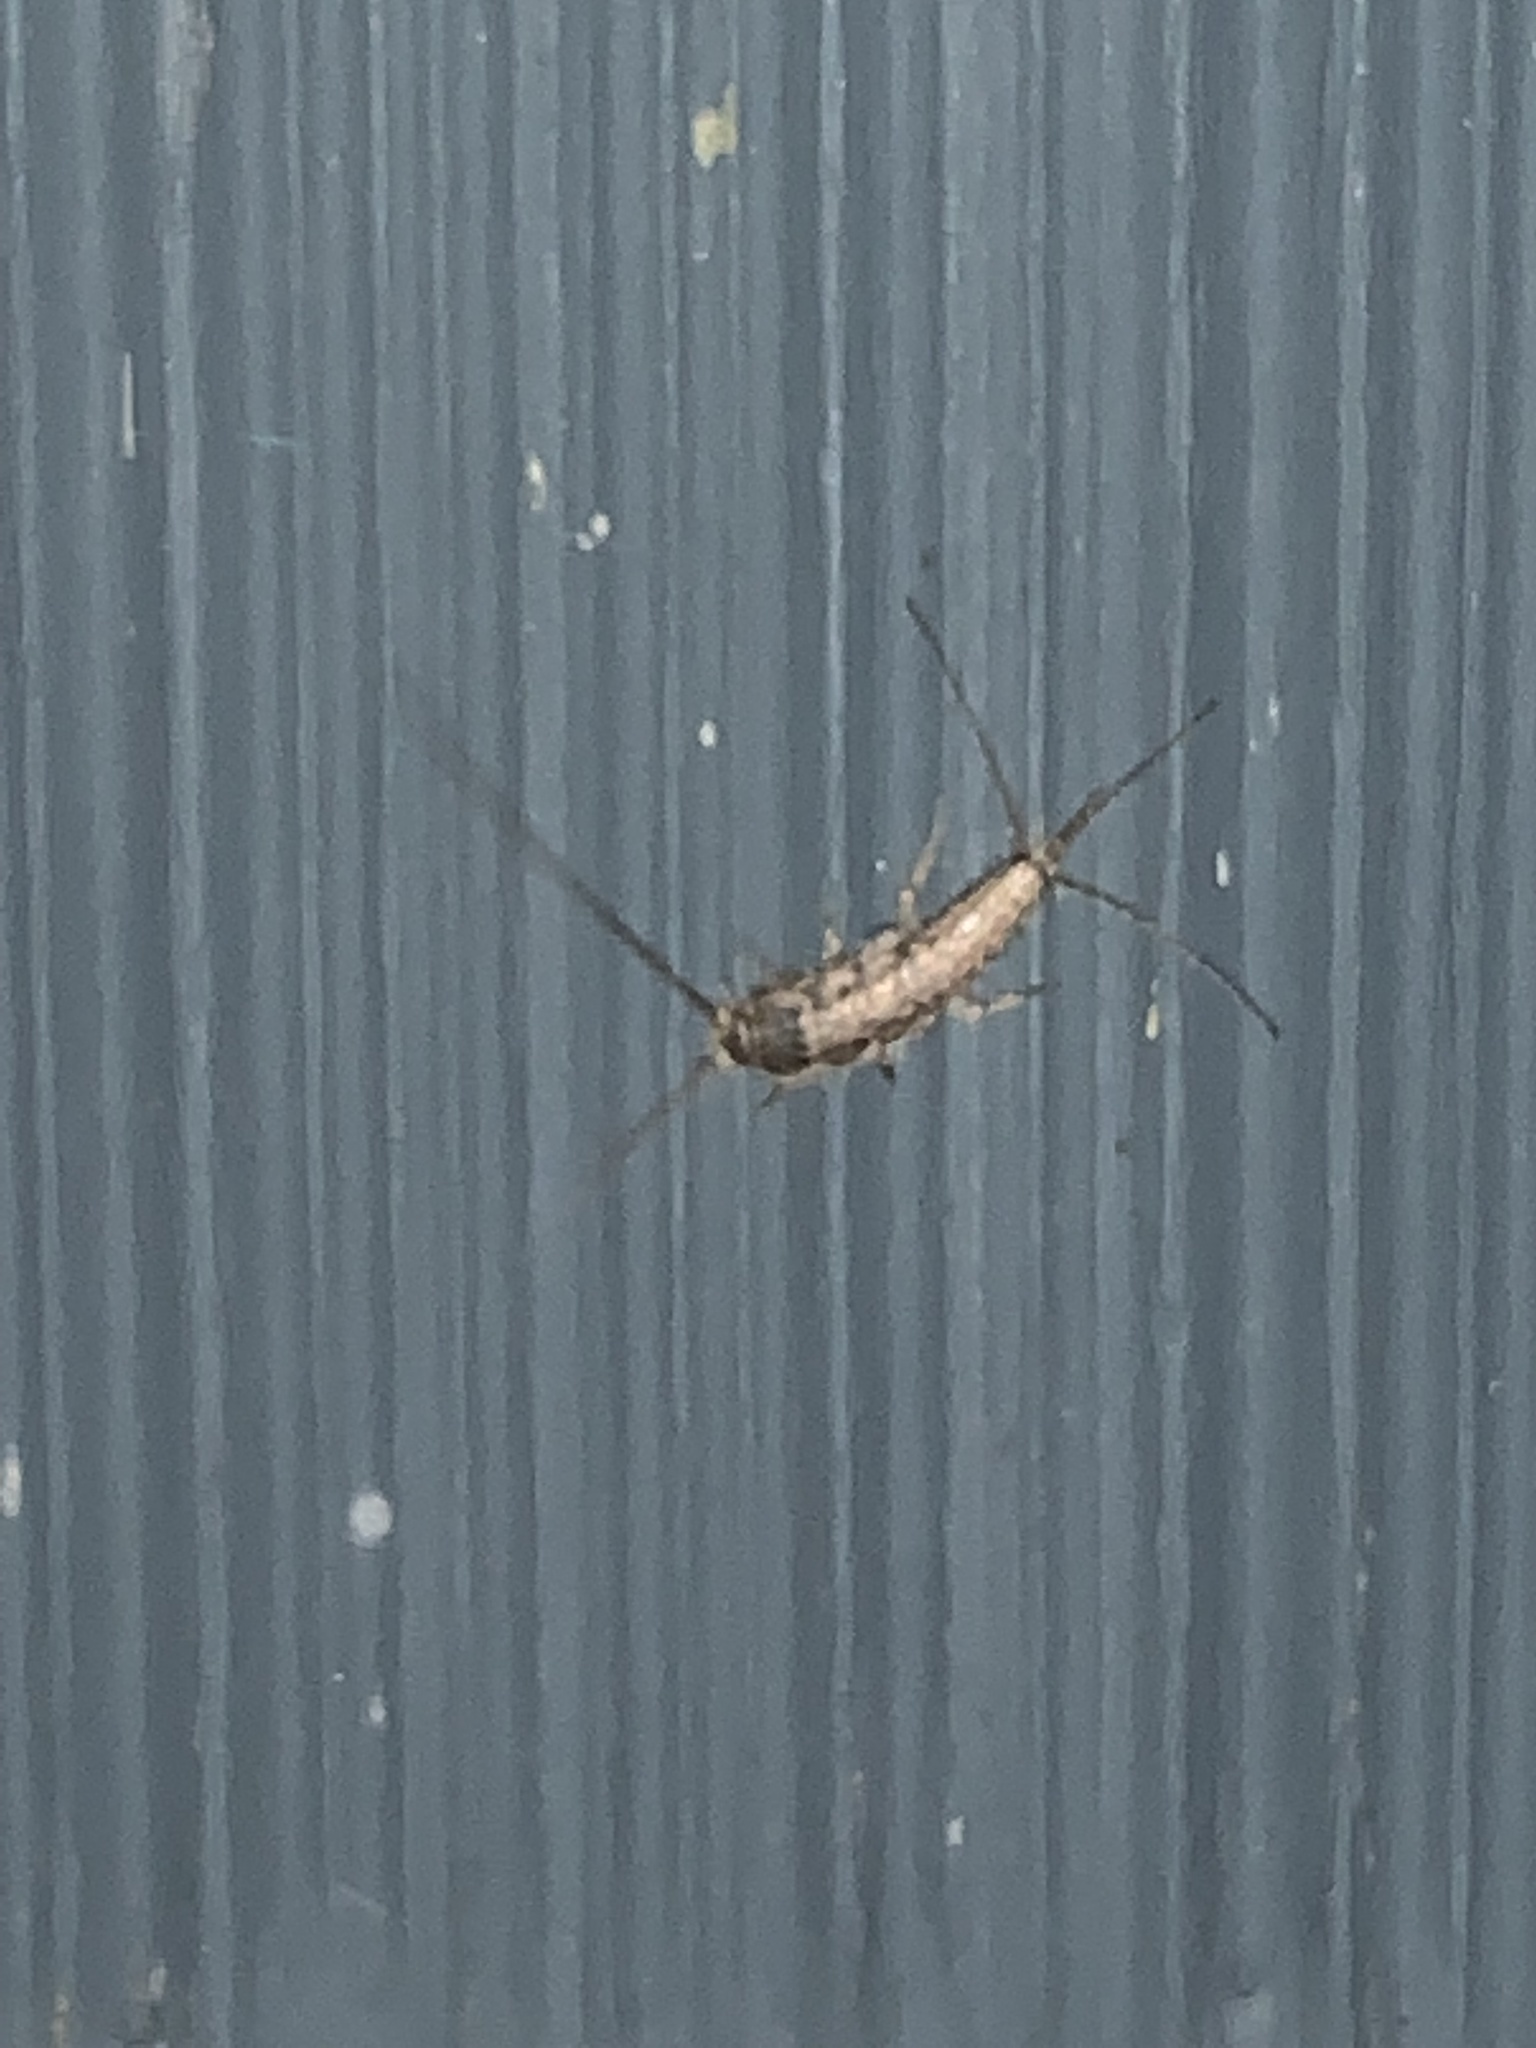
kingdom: Animalia
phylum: Arthropoda
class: Insecta
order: Zygentoma
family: Lepismatidae
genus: Ctenolepisma
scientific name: Ctenolepisma lineata
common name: Four-lined silverfish
